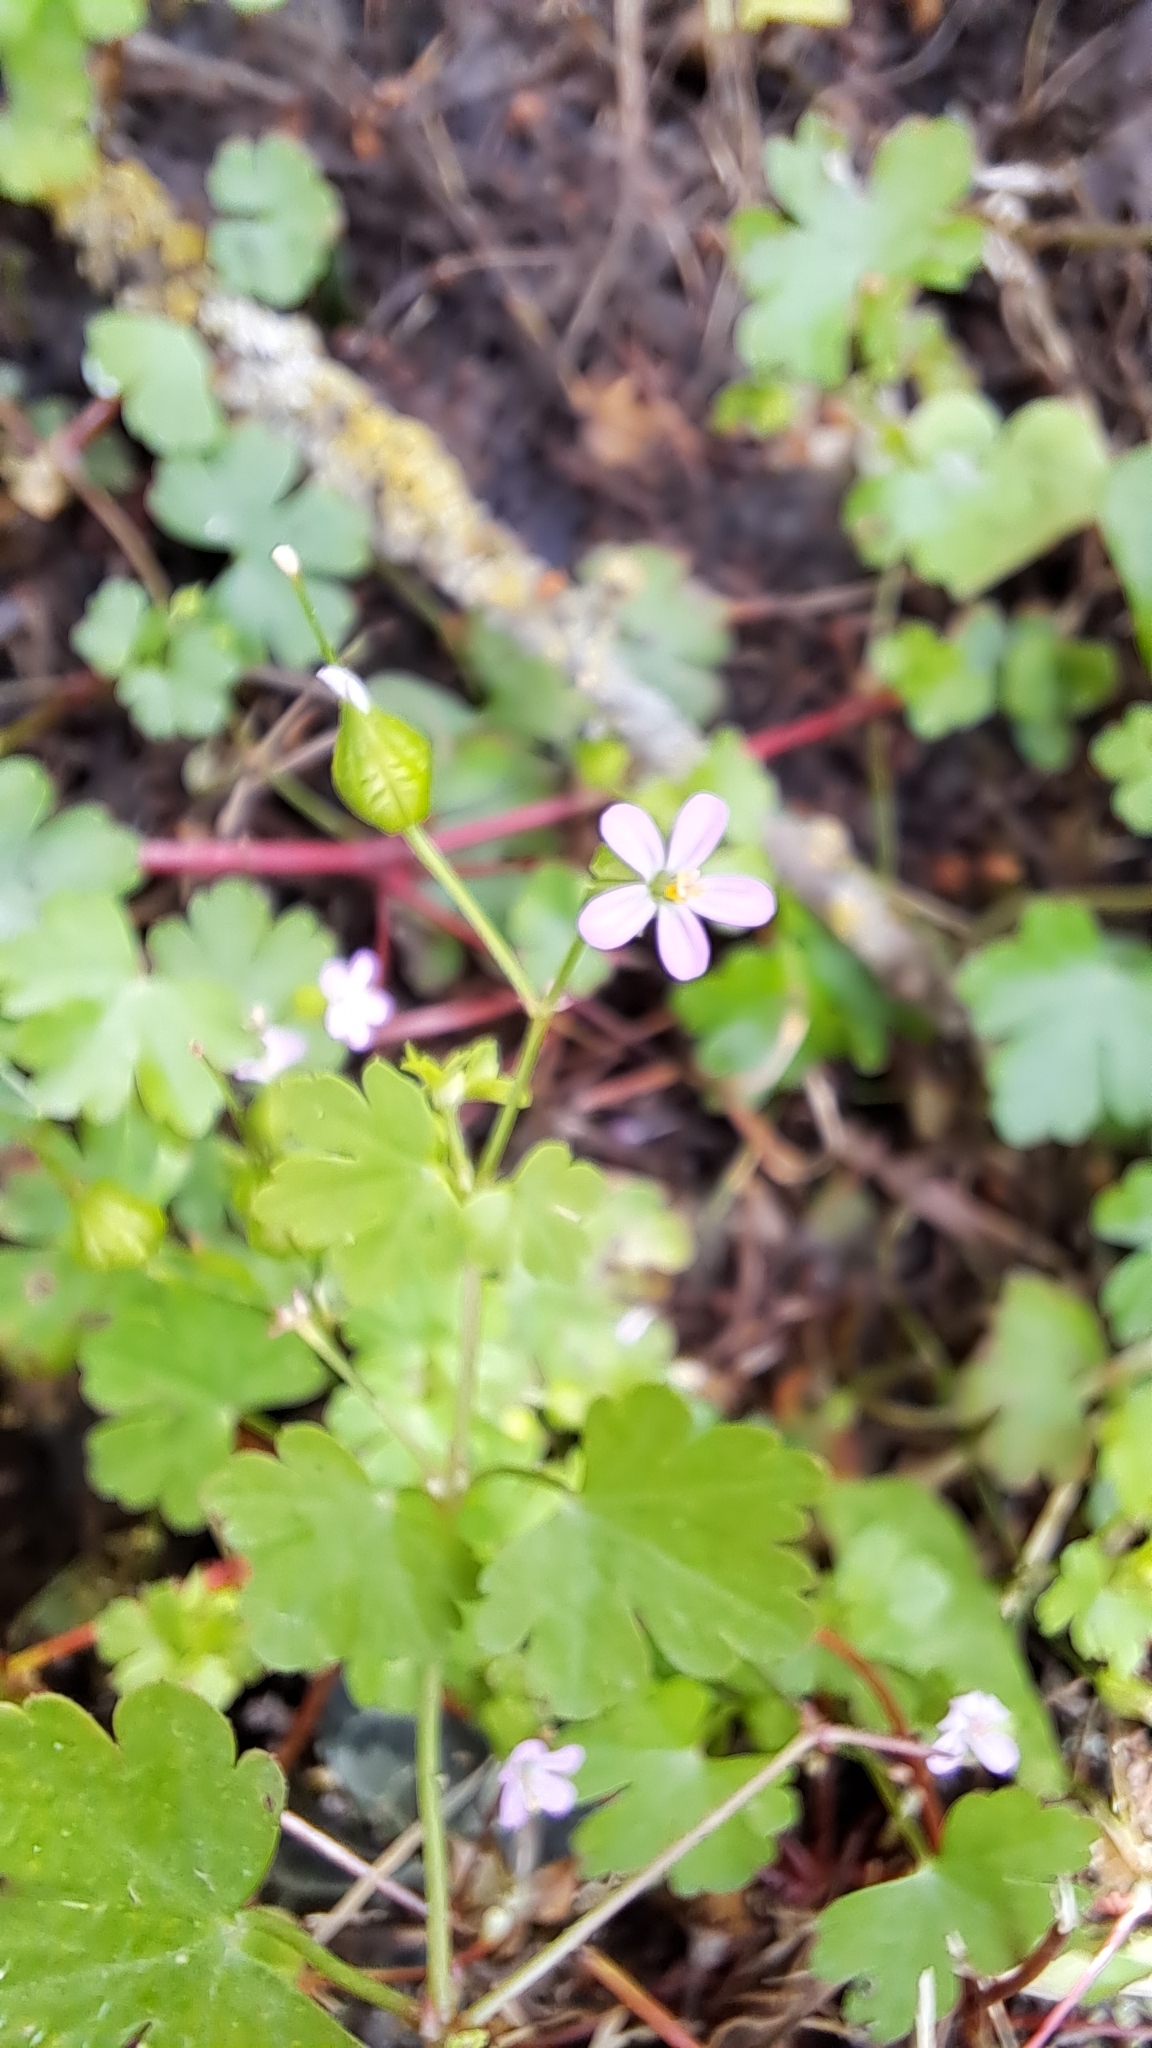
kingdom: Plantae
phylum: Tracheophyta
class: Magnoliopsida
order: Geraniales
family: Geraniaceae
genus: Geranium
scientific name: Geranium lucidum
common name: Shining crane's-bill
